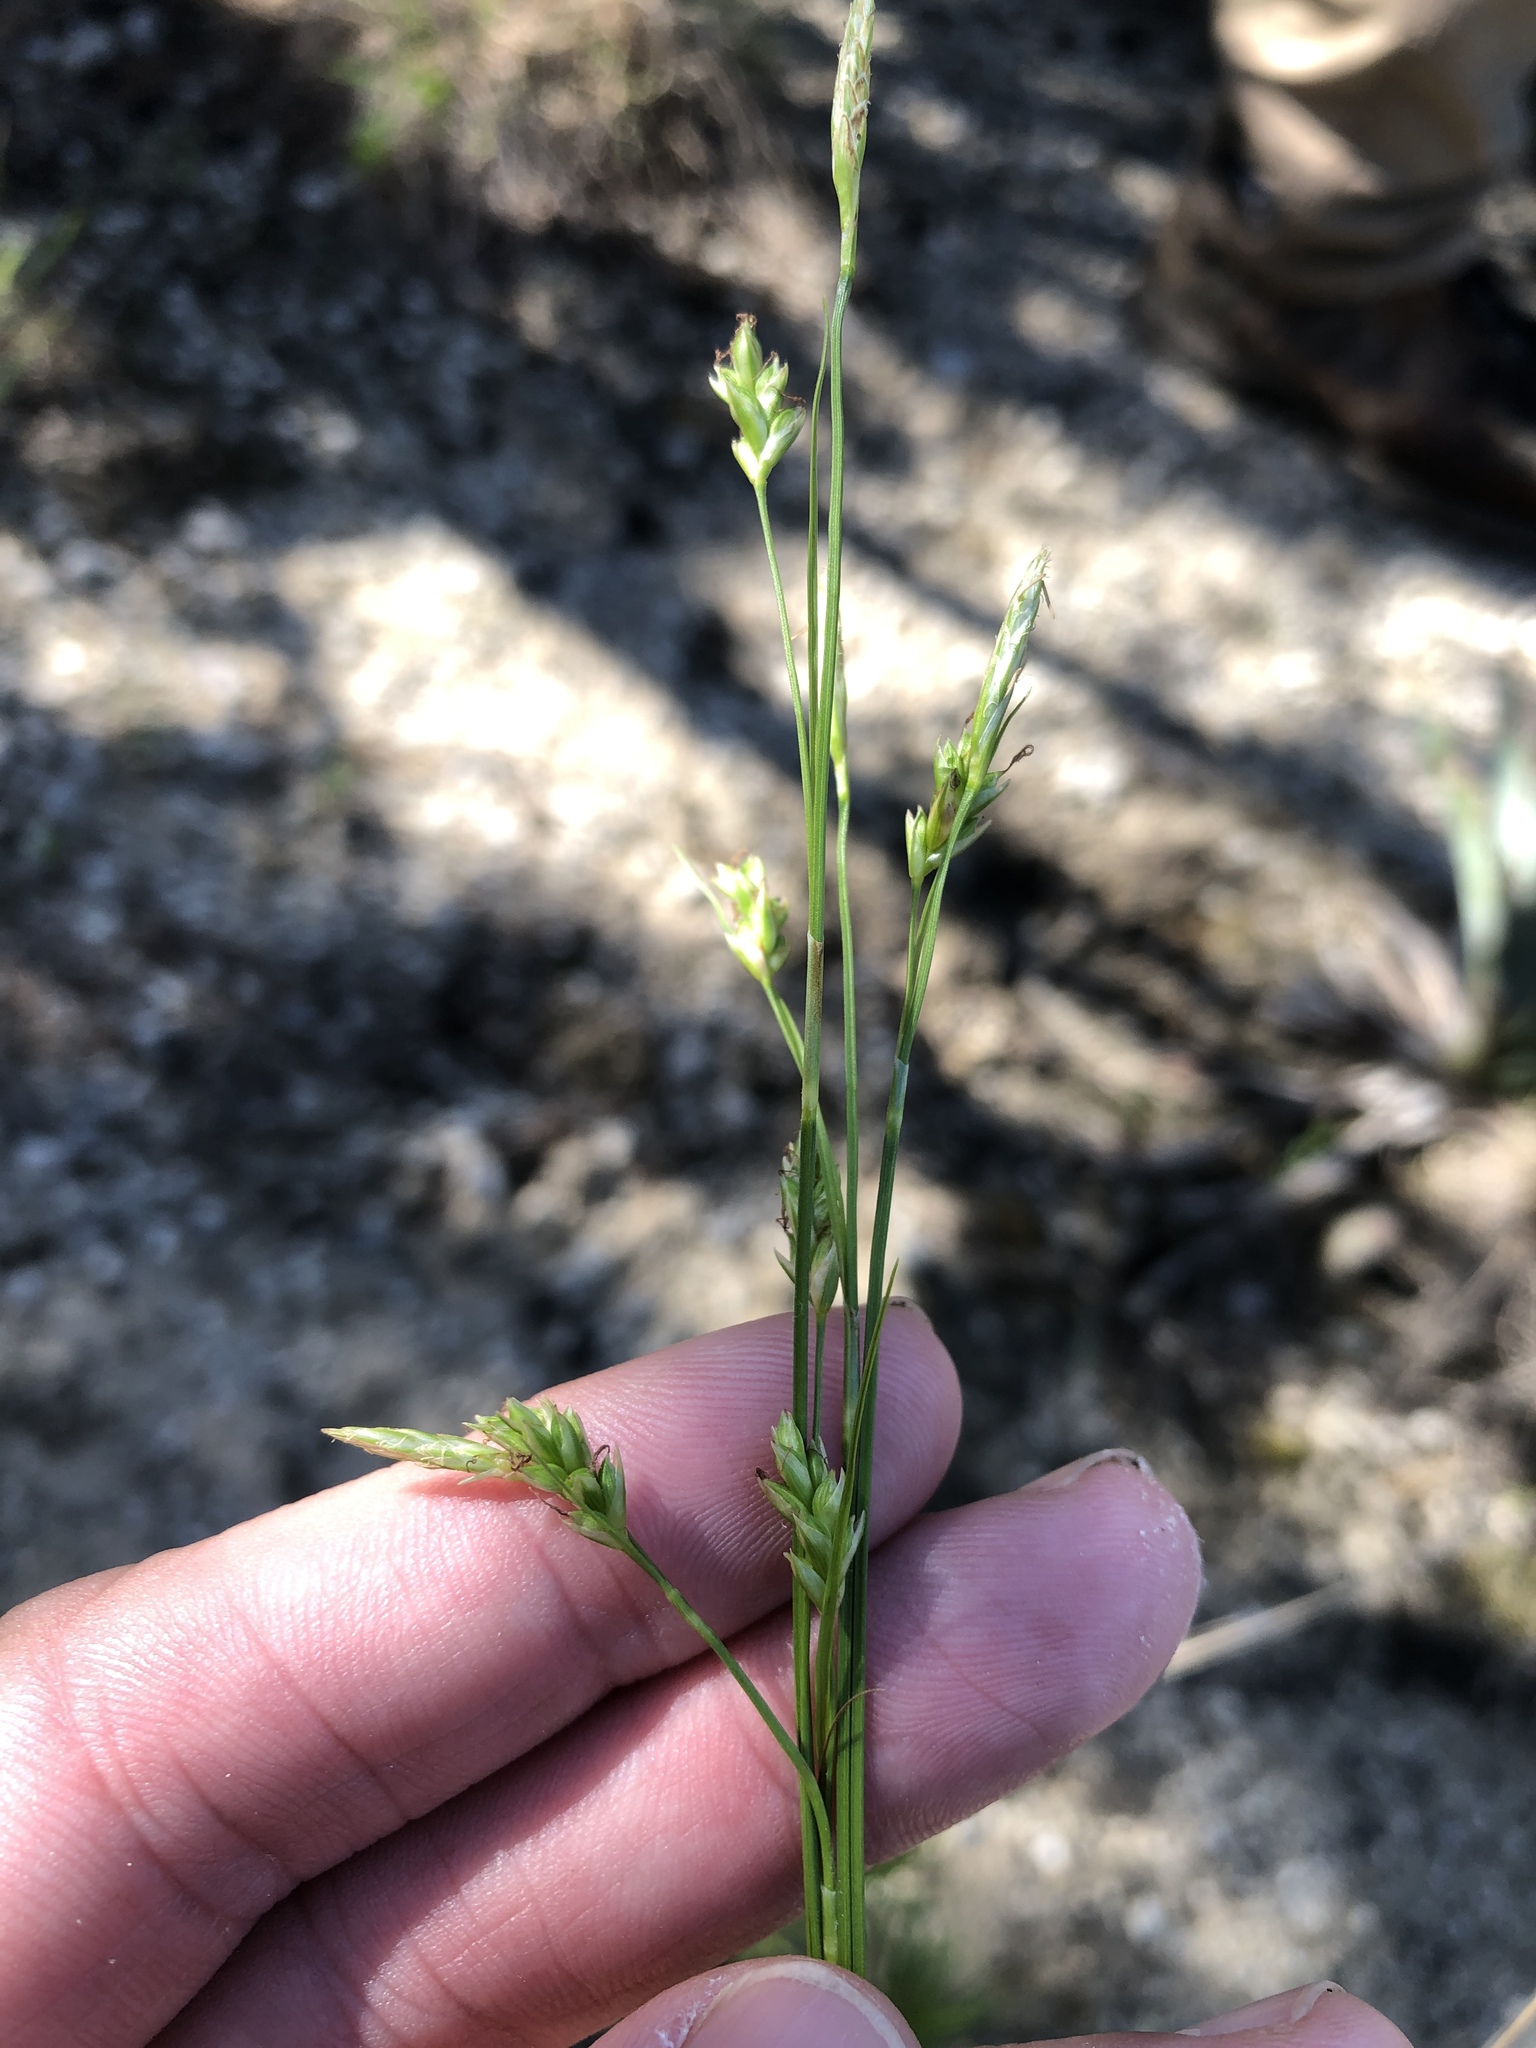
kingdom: Plantae
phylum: Tracheophyta
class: Liliopsida
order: Poales
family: Cyperaceae
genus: Carex
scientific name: Carex planostachys
